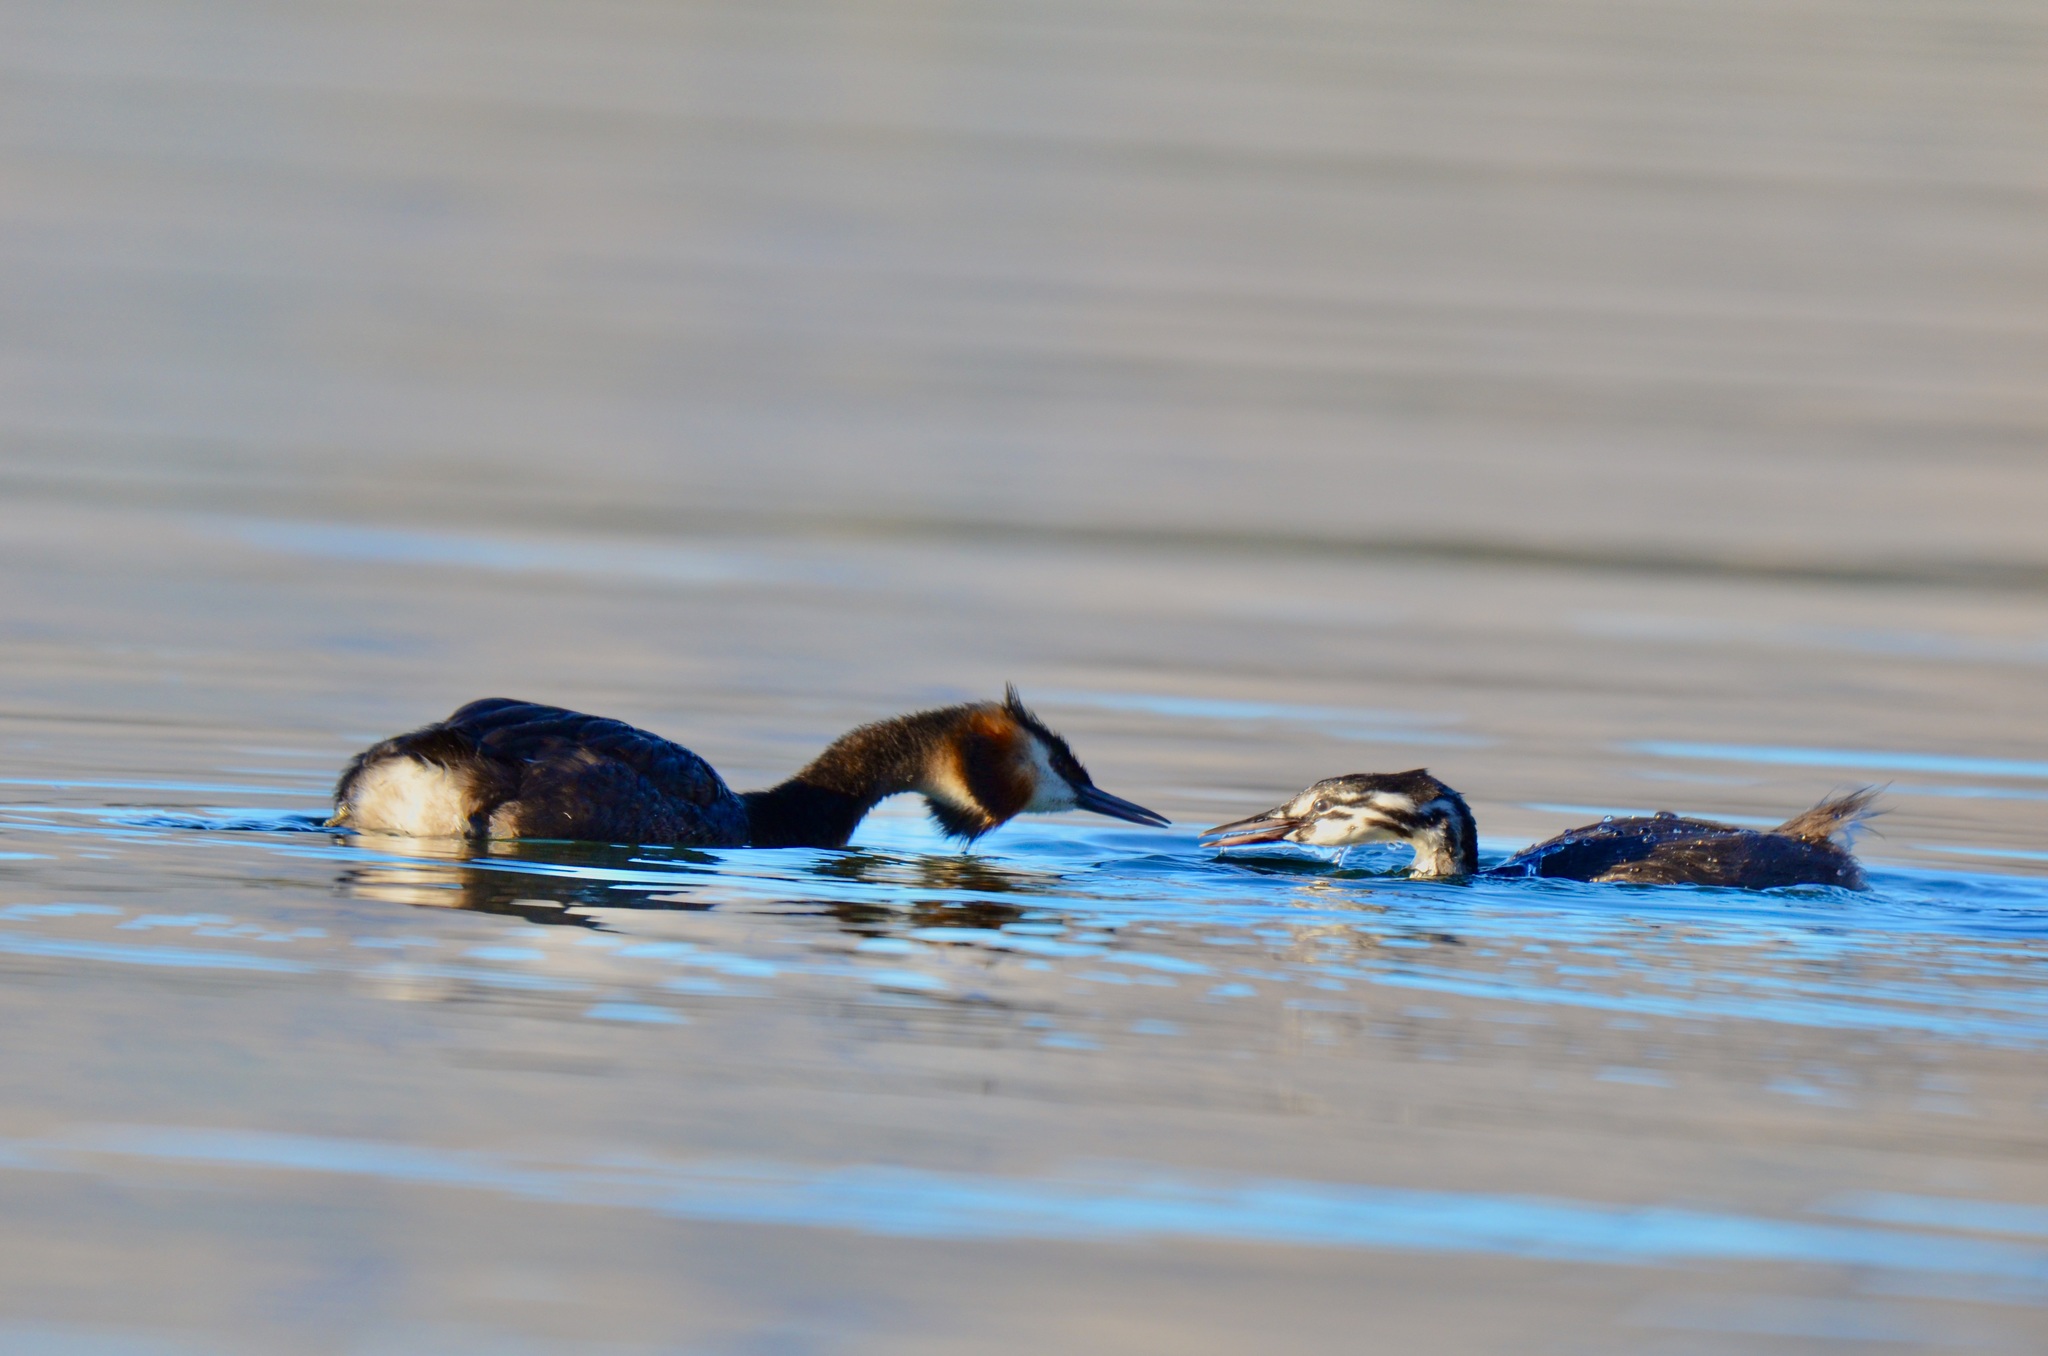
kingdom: Animalia
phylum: Chordata
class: Aves
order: Podicipediformes
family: Podicipedidae
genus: Podiceps
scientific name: Podiceps cristatus
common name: Great crested grebe
